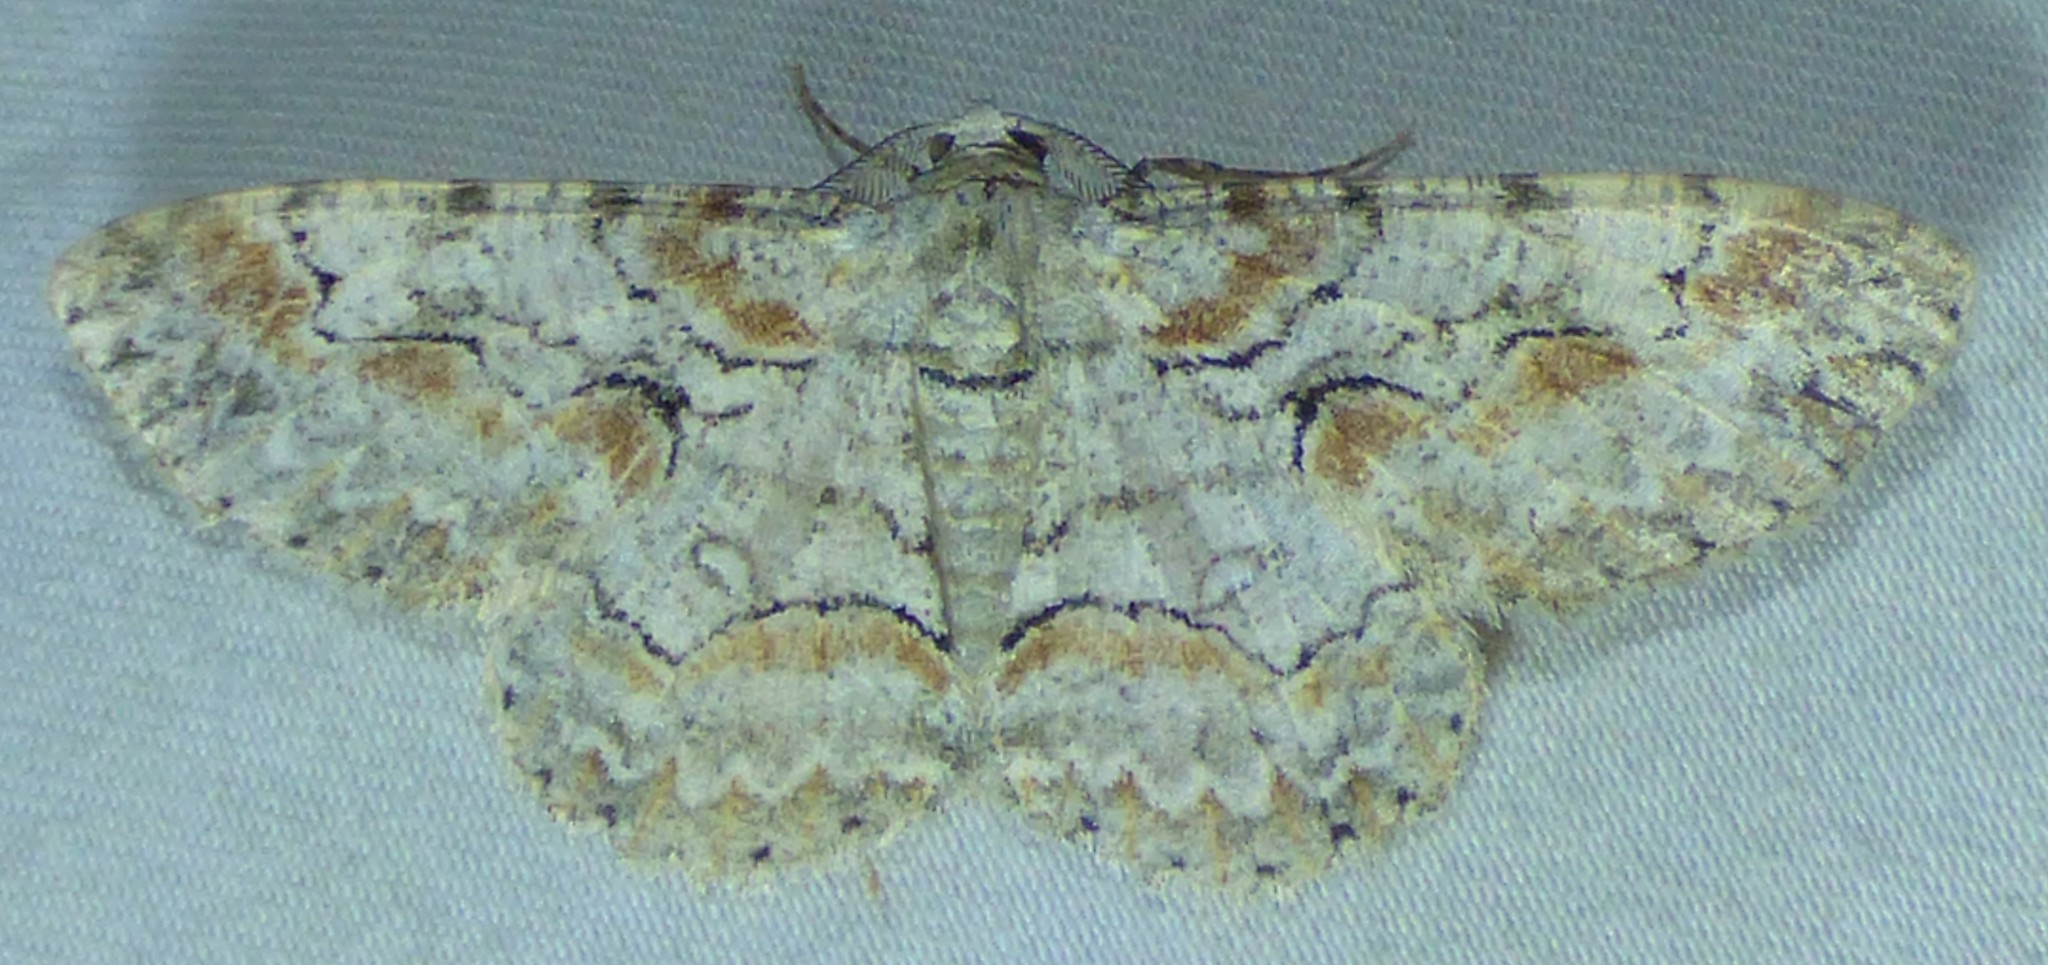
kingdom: Animalia
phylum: Arthropoda
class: Insecta
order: Lepidoptera
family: Geometridae
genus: Iridopsis
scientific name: Iridopsis defectaria
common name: Brown-shaded gray
